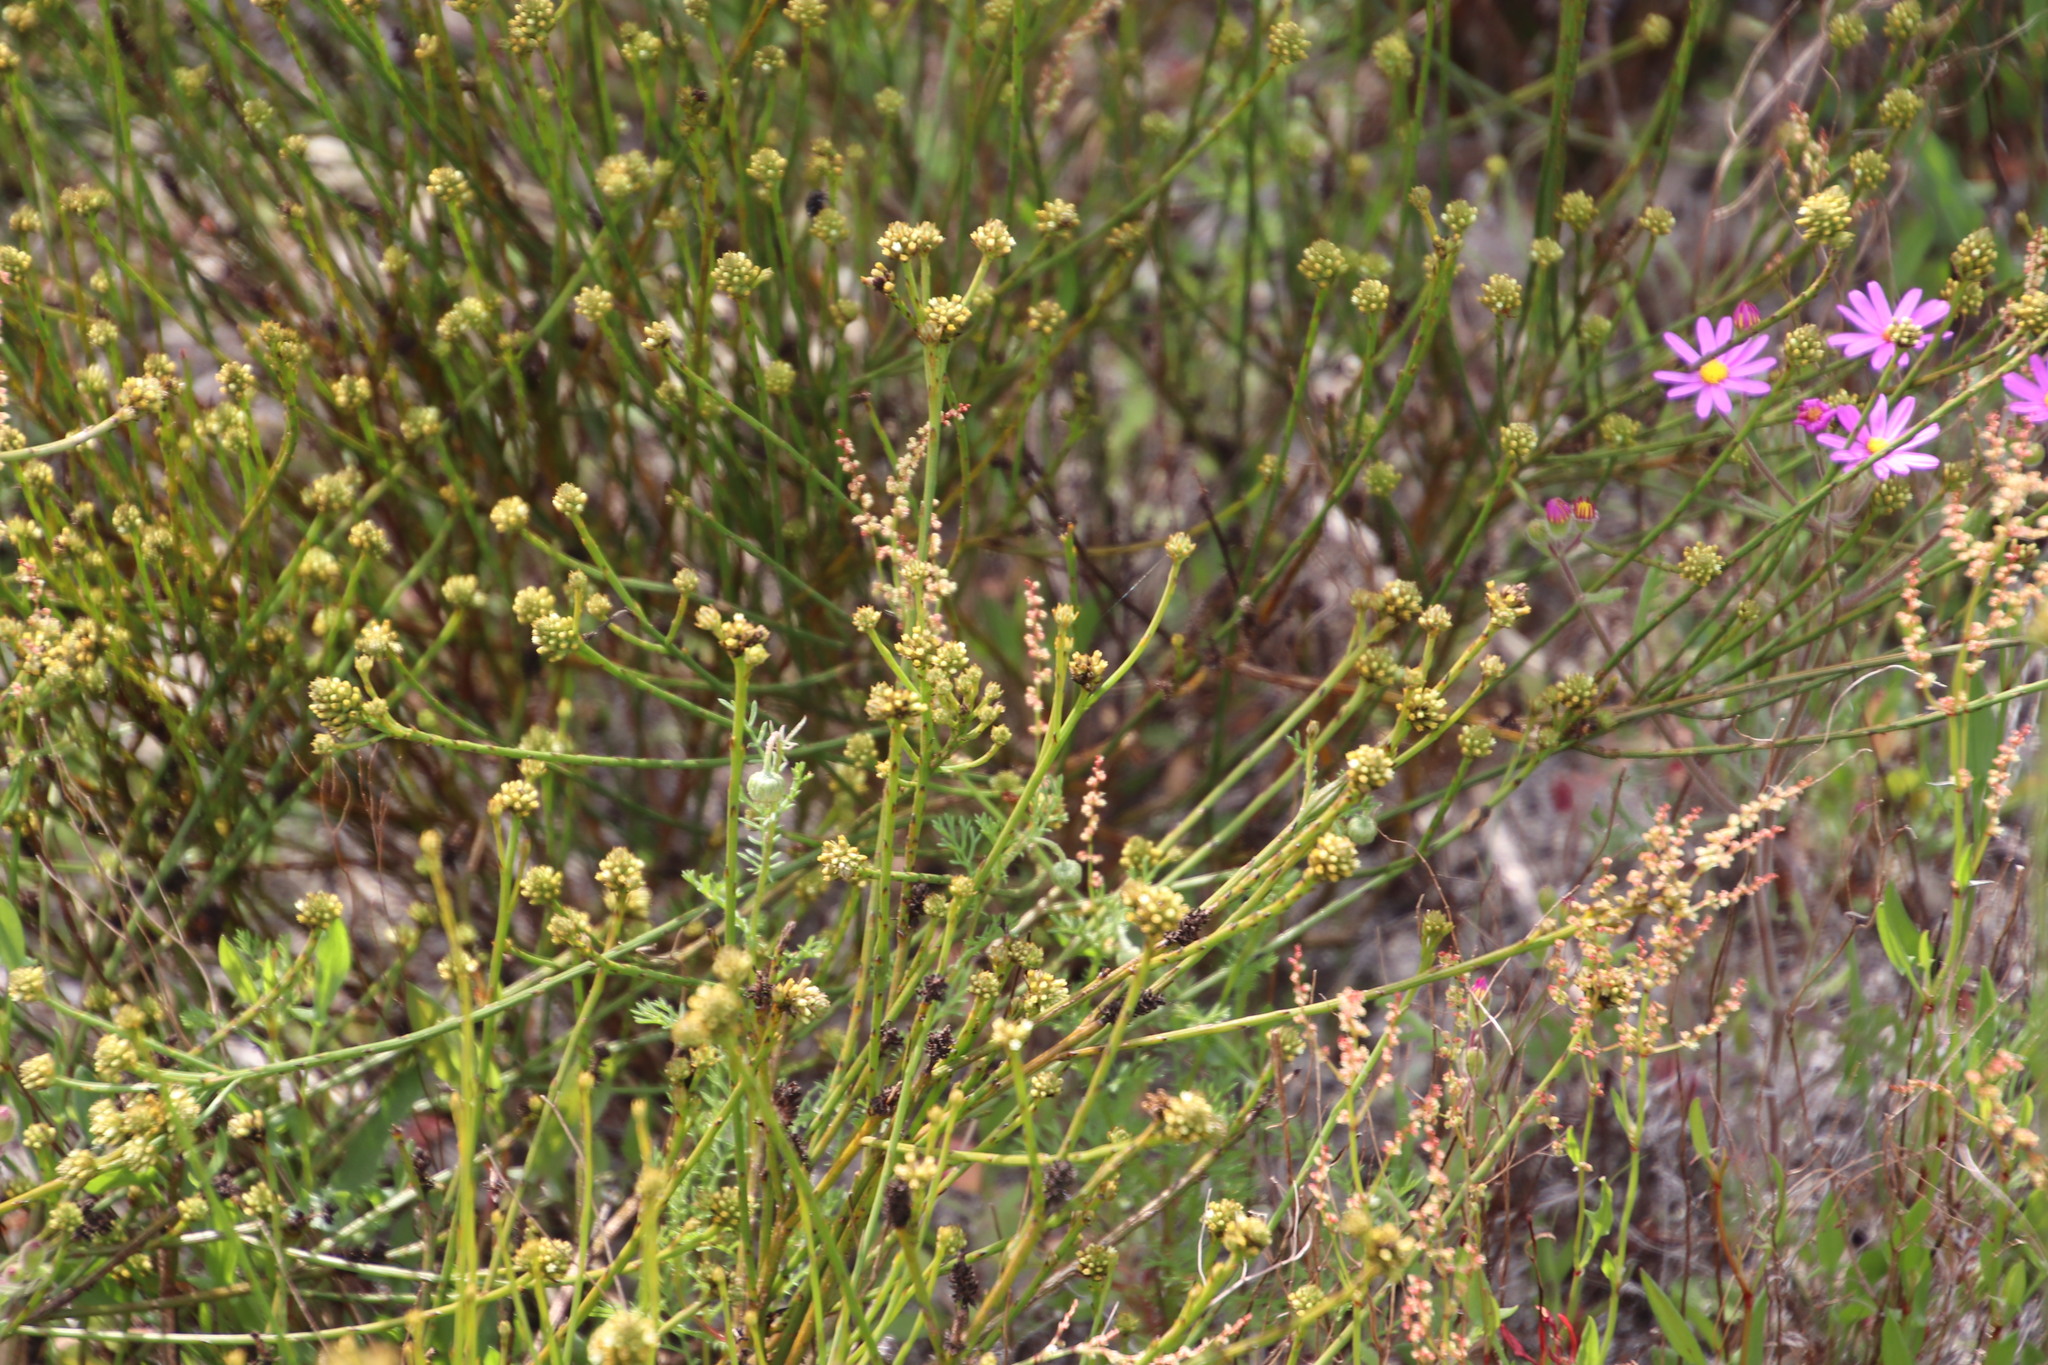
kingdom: Plantae
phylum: Tracheophyta
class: Magnoliopsida
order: Santalales
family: Thesiaceae
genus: Thesium
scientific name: Thesium aggregatum
